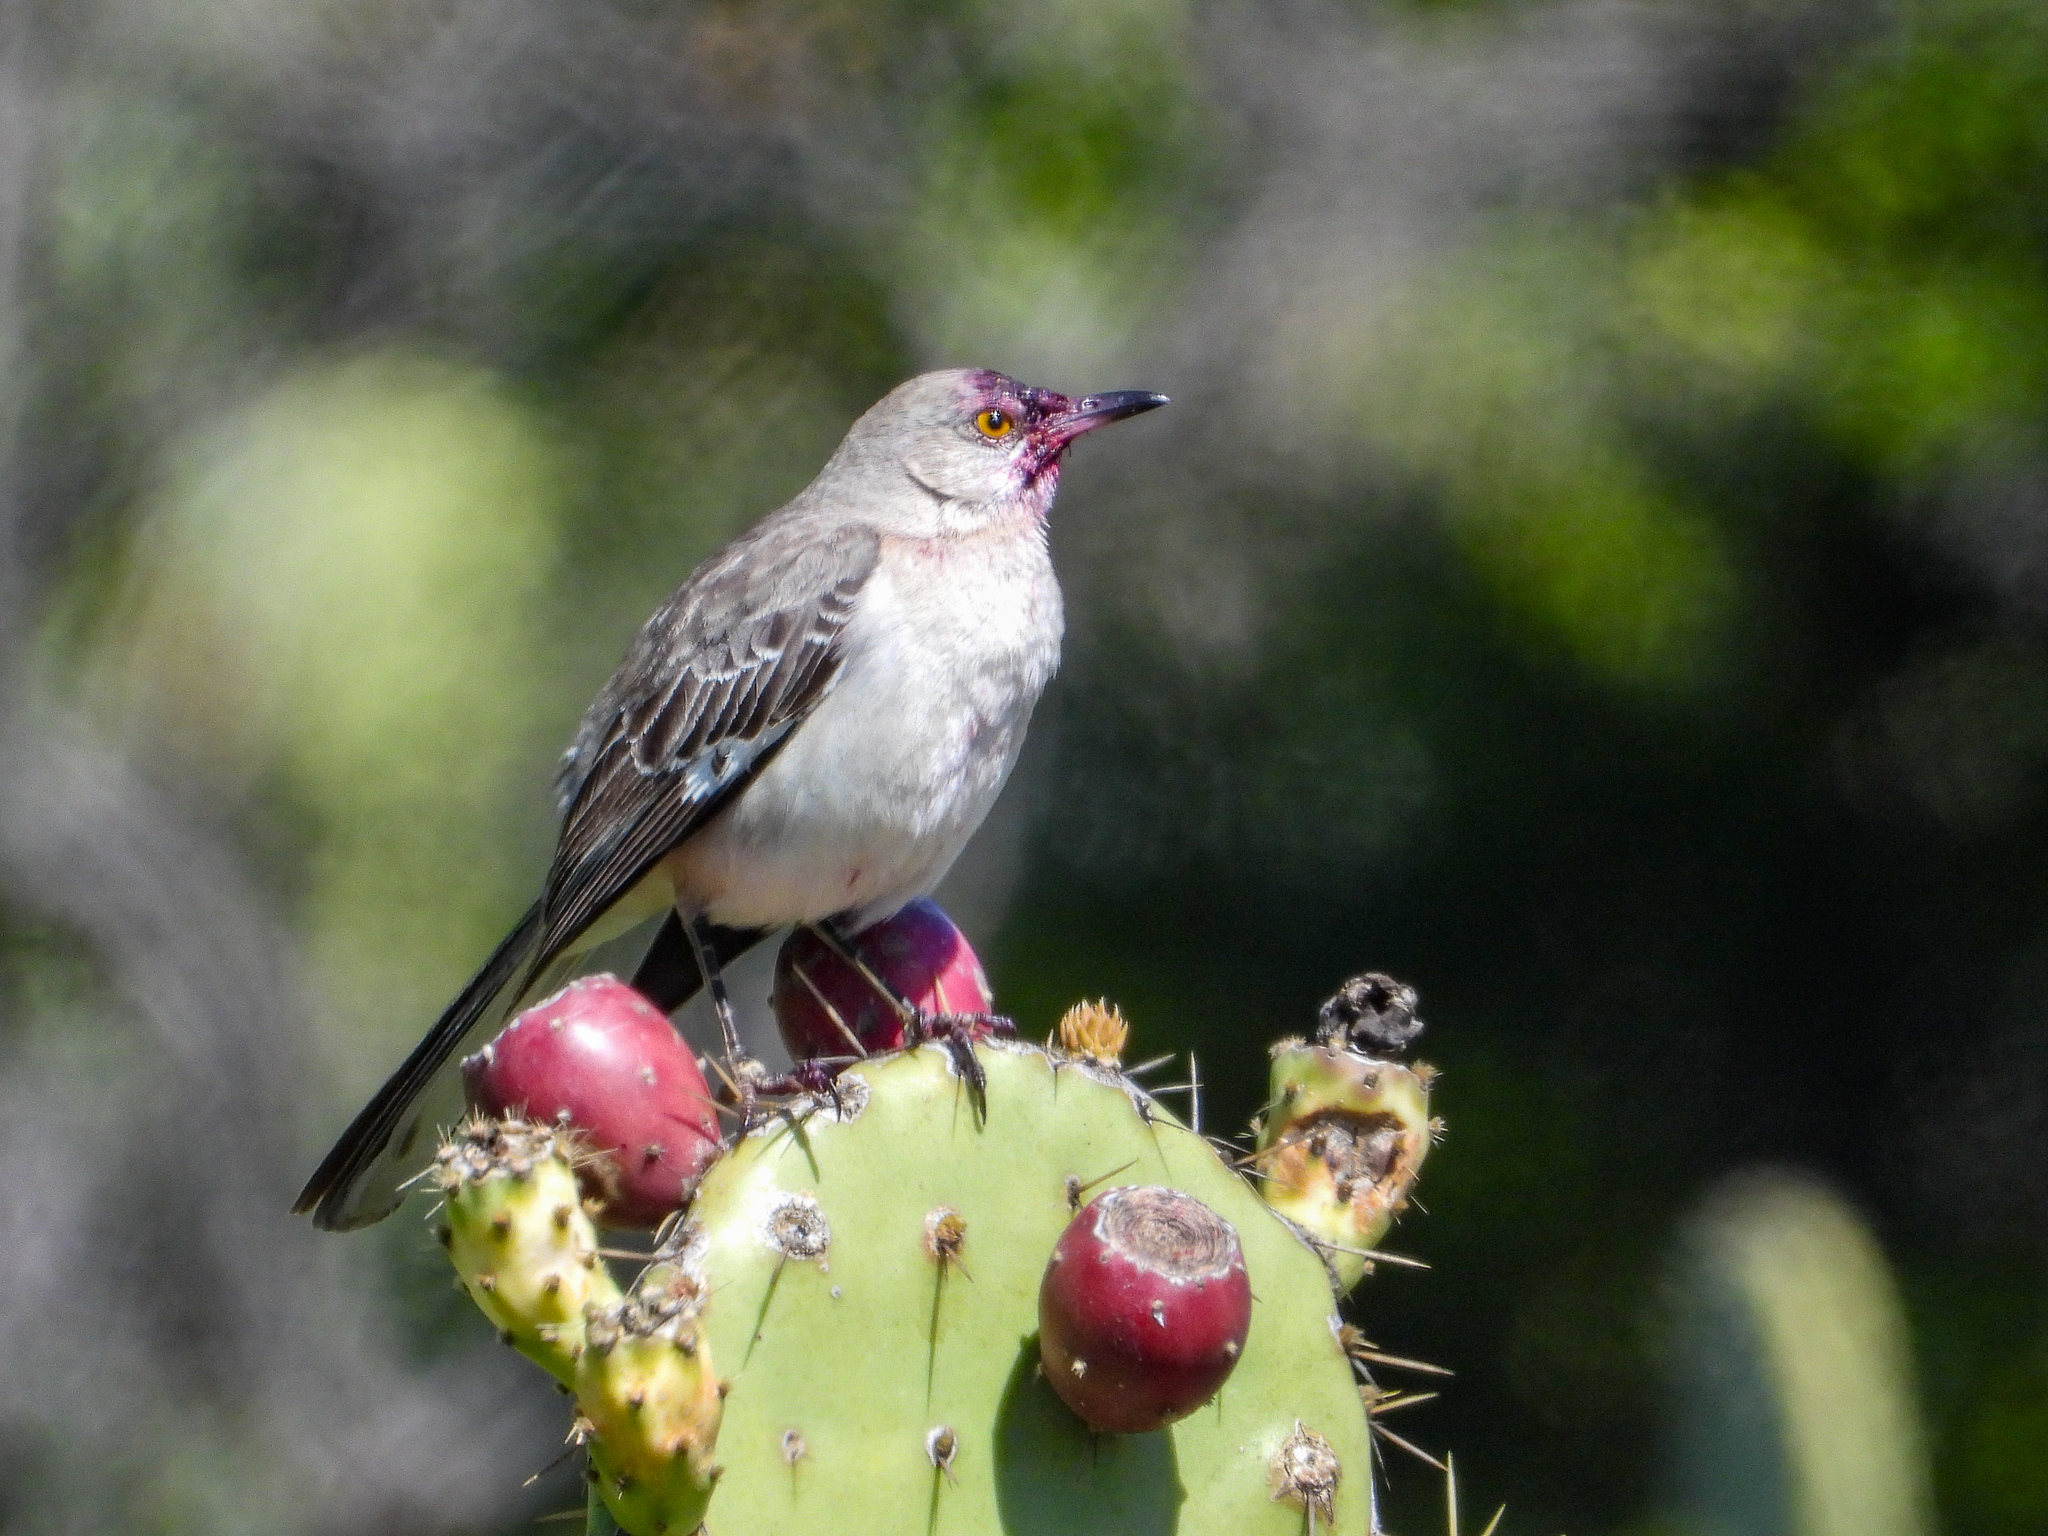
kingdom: Animalia
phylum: Chordata
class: Aves
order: Passeriformes
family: Mimidae
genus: Mimus
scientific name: Mimus polyglottos
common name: Northern mockingbird
